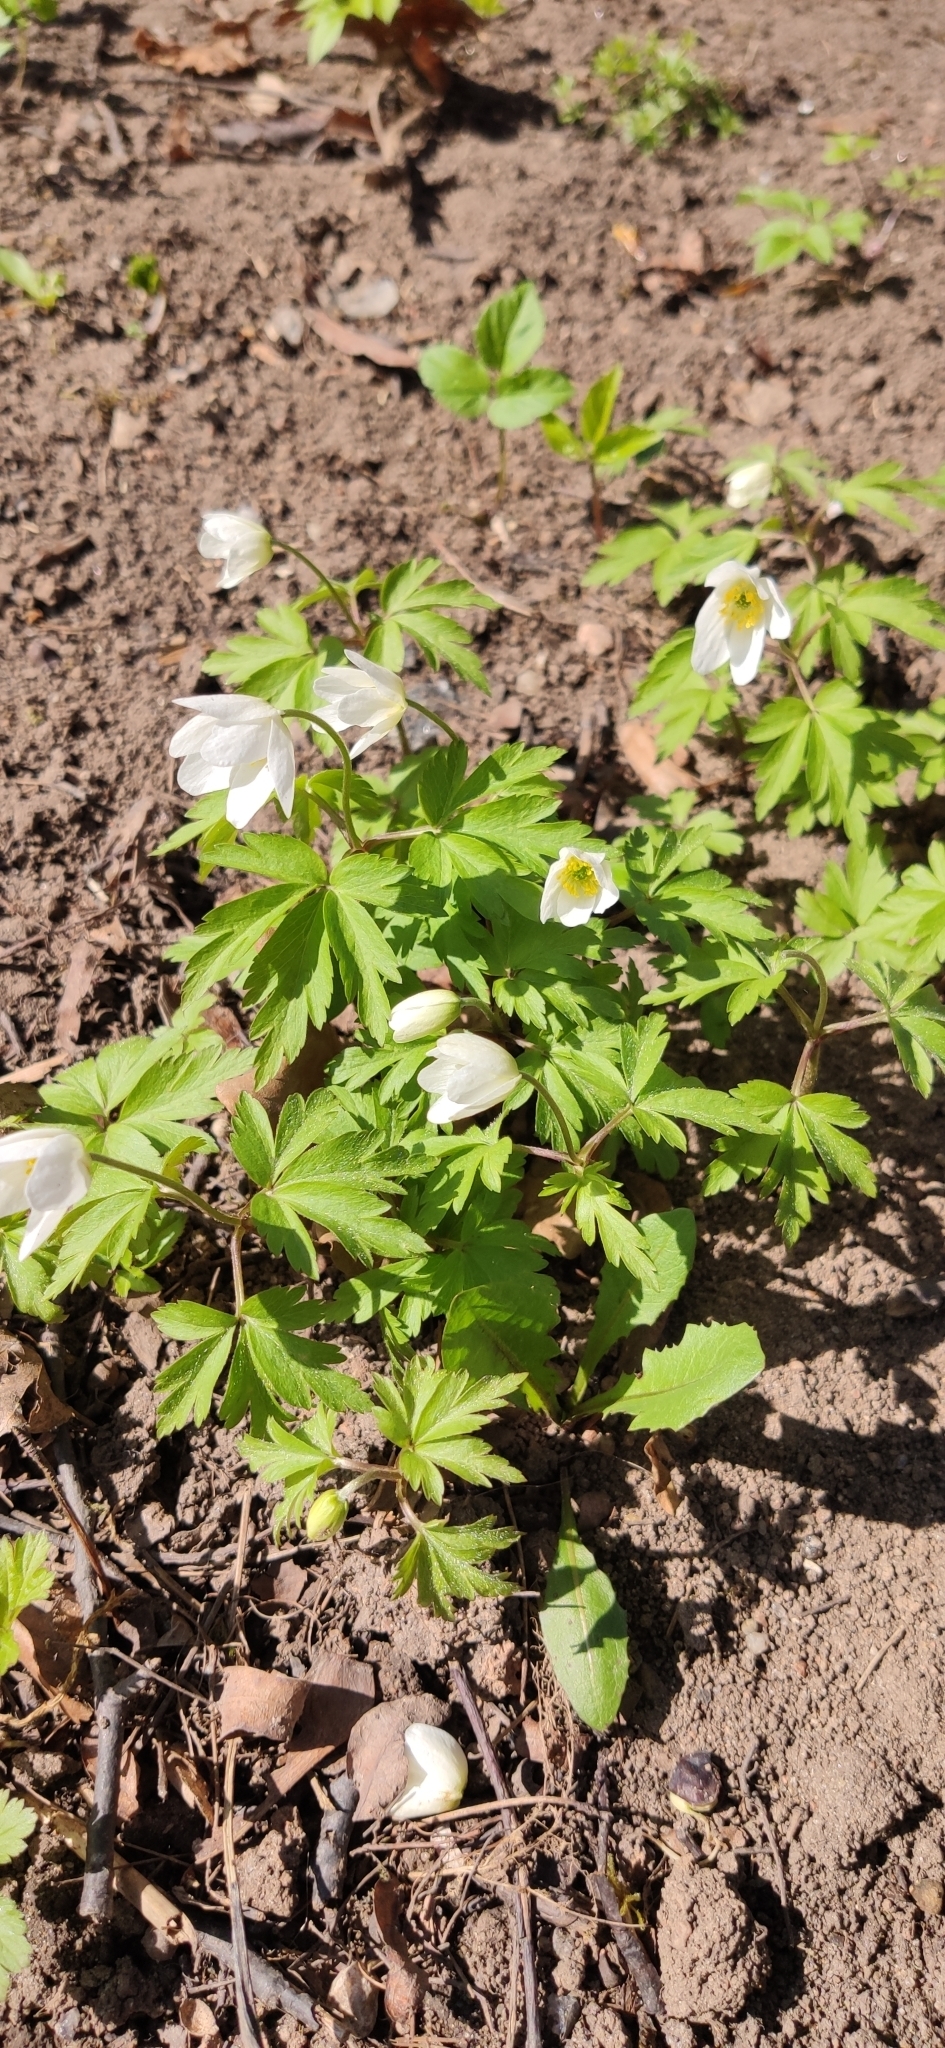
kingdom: Plantae
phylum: Tracheophyta
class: Magnoliopsida
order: Ranunculales
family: Ranunculaceae
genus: Anemone
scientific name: Anemone nemorosa
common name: Wood anemone
